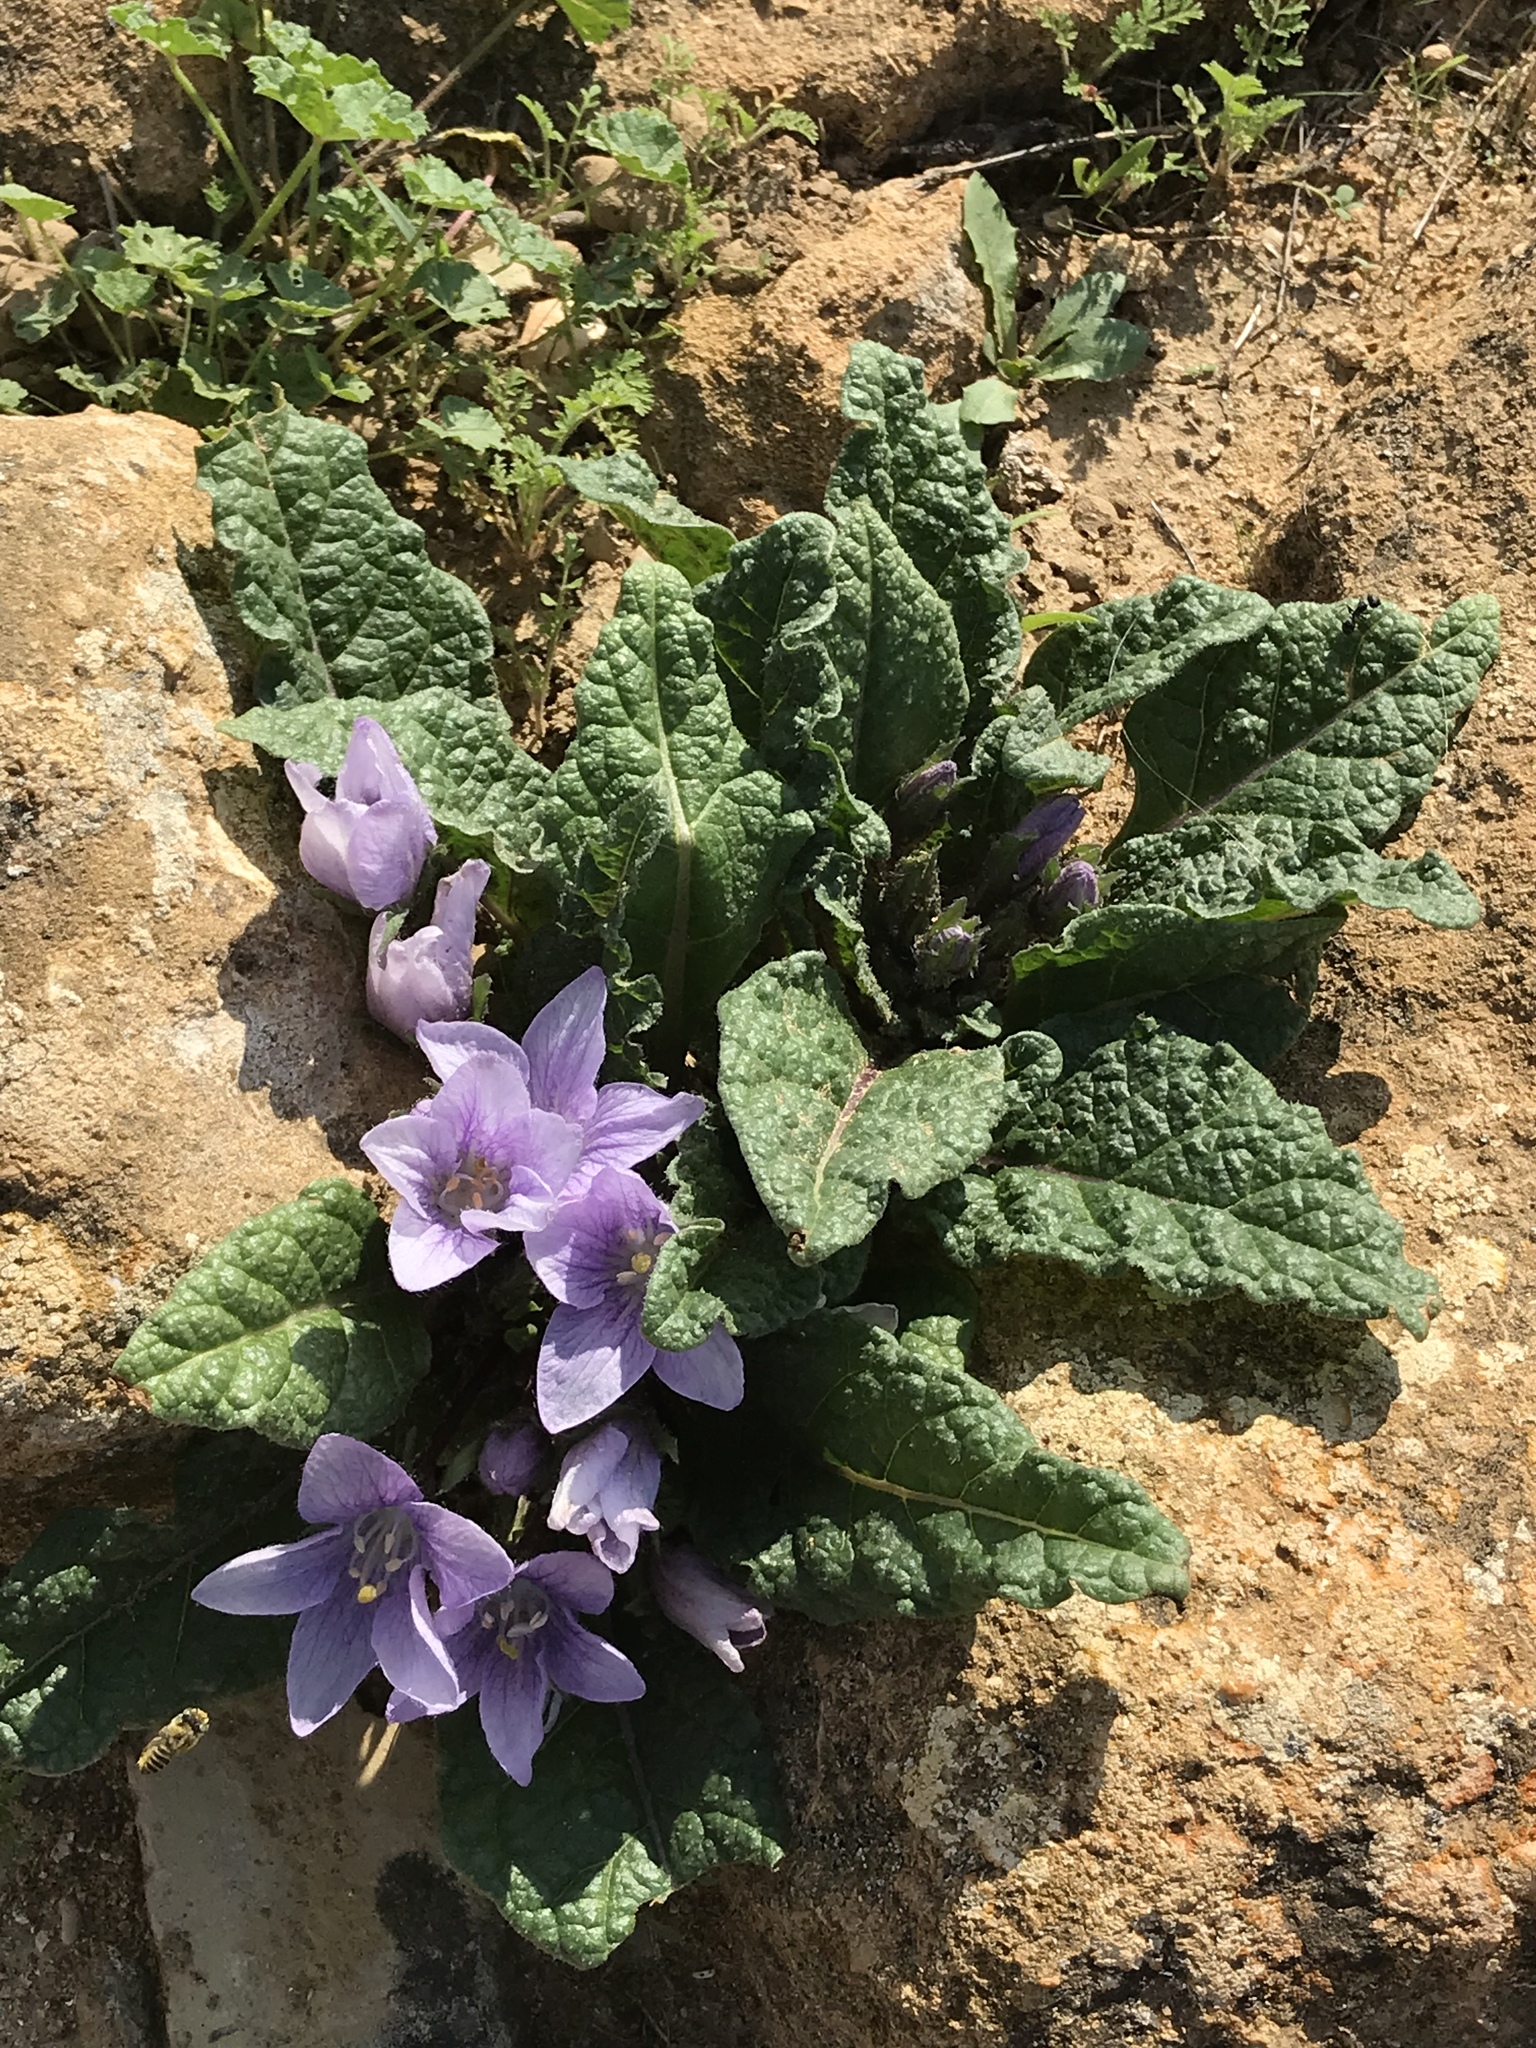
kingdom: Plantae
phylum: Tracheophyta
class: Magnoliopsida
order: Solanales
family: Solanaceae
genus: Mandragora
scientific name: Mandragora officinarum
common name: Mandrake
